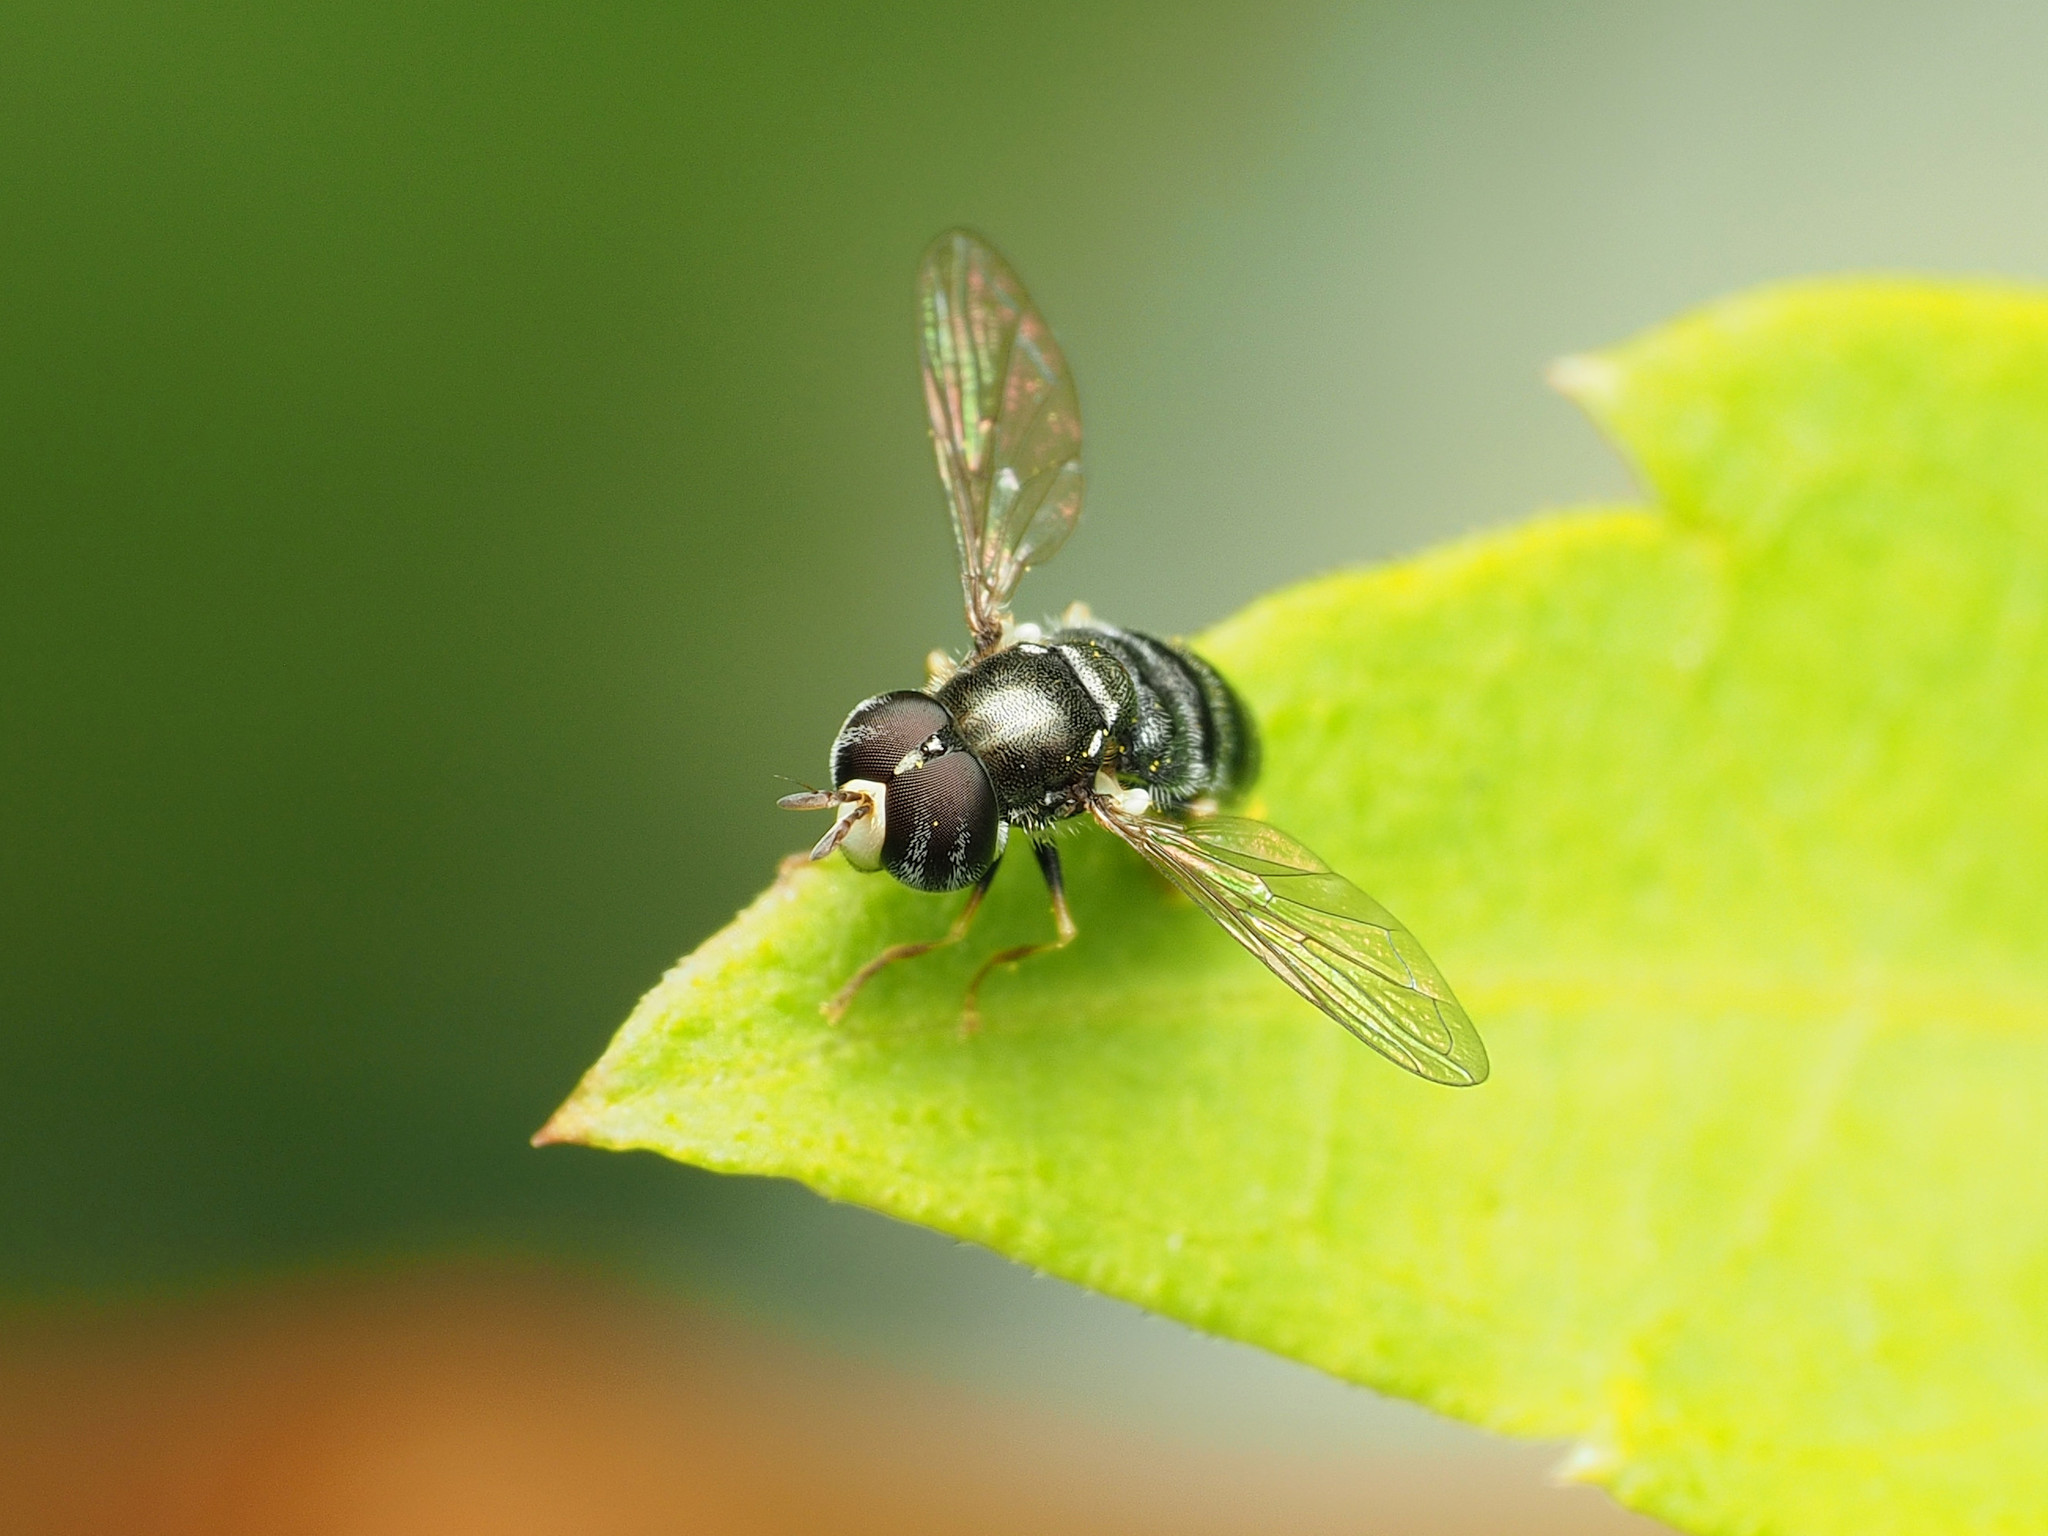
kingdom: Animalia
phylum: Arthropoda
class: Insecta
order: Diptera
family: Syrphidae
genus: Paragus
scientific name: Paragus
